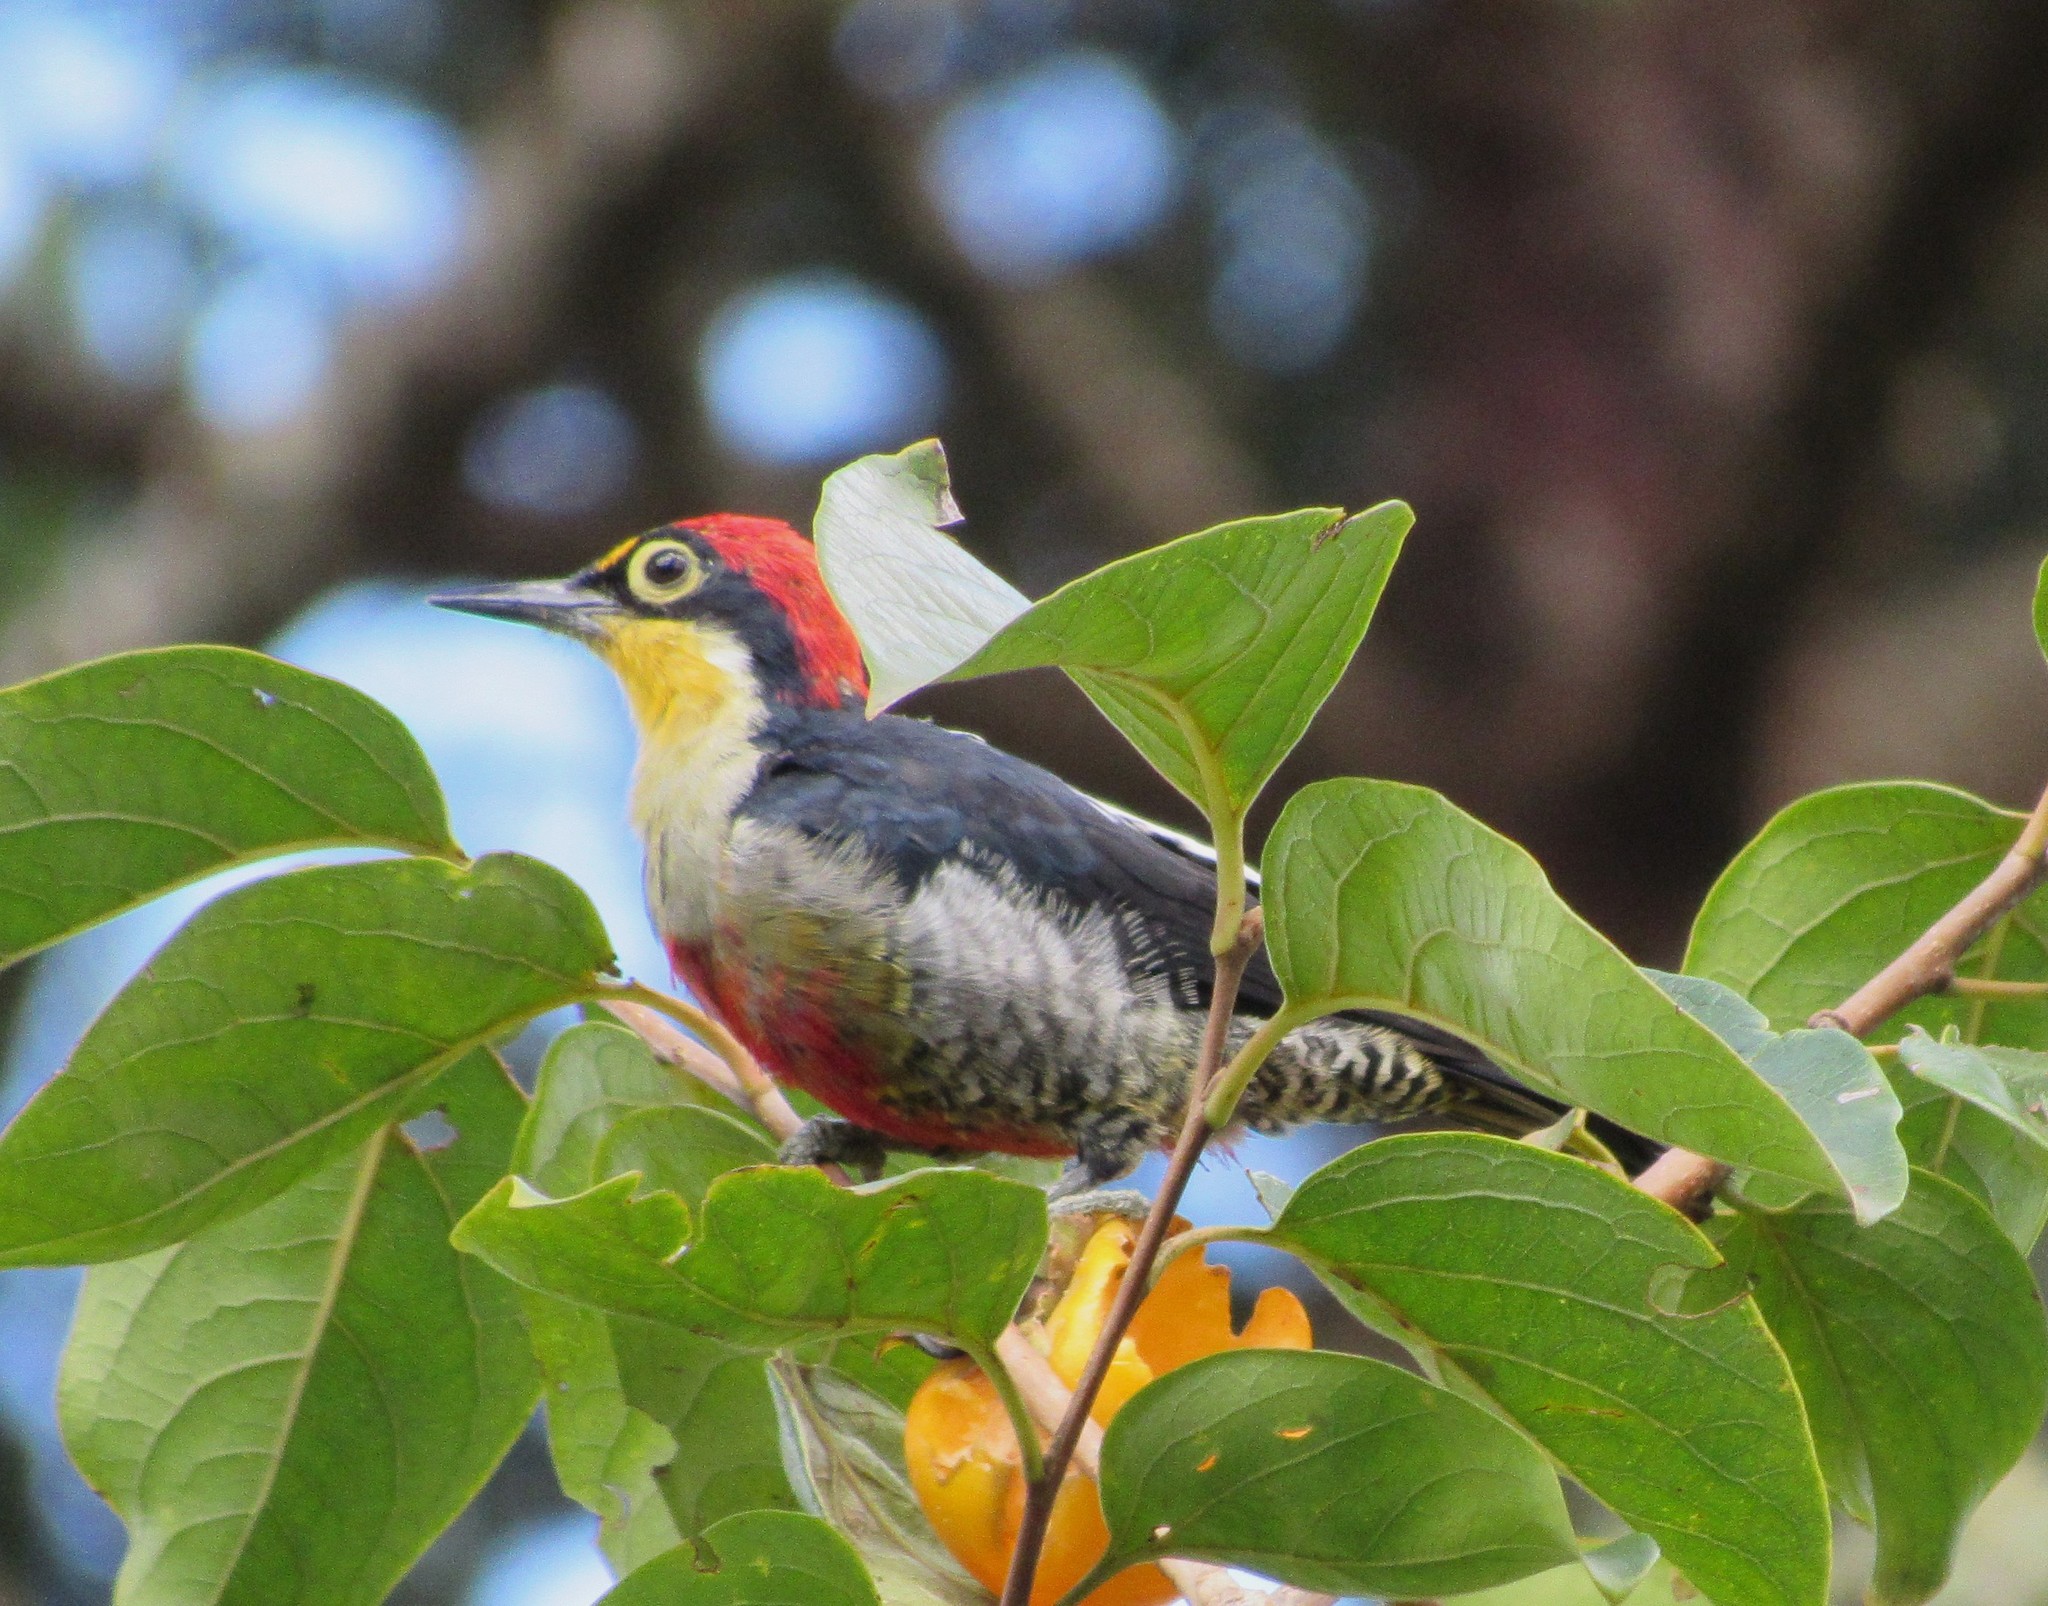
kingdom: Animalia
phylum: Chordata
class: Aves
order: Piciformes
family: Picidae
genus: Melanerpes
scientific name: Melanerpes flavifrons
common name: Yellow-fronted woodpecker
